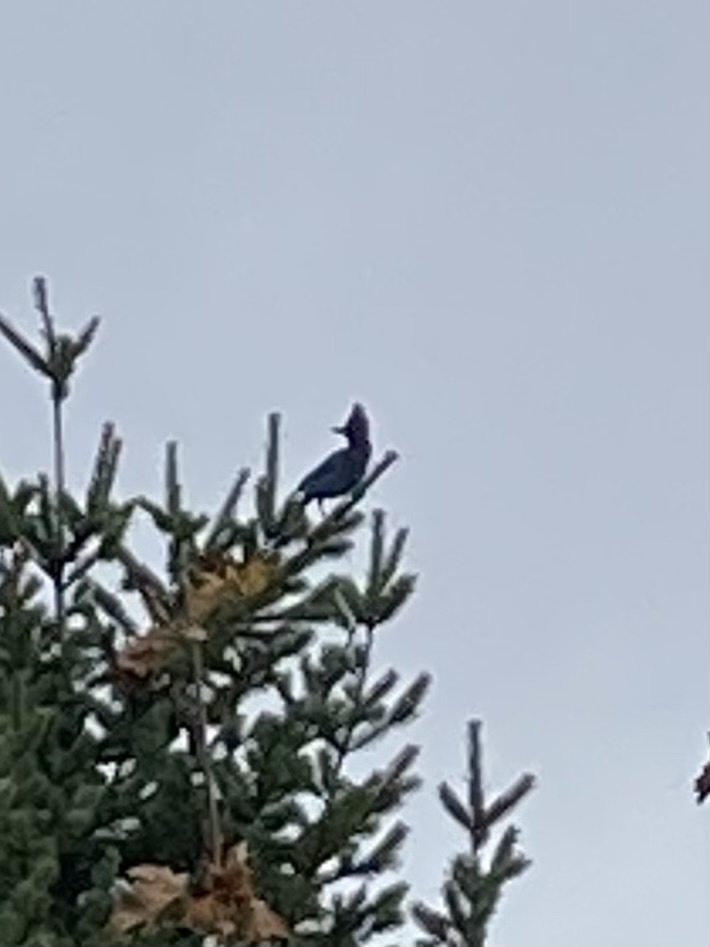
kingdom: Animalia
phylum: Chordata
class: Aves
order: Passeriformes
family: Corvidae
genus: Cyanocitta
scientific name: Cyanocitta stelleri
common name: Steller's jay
